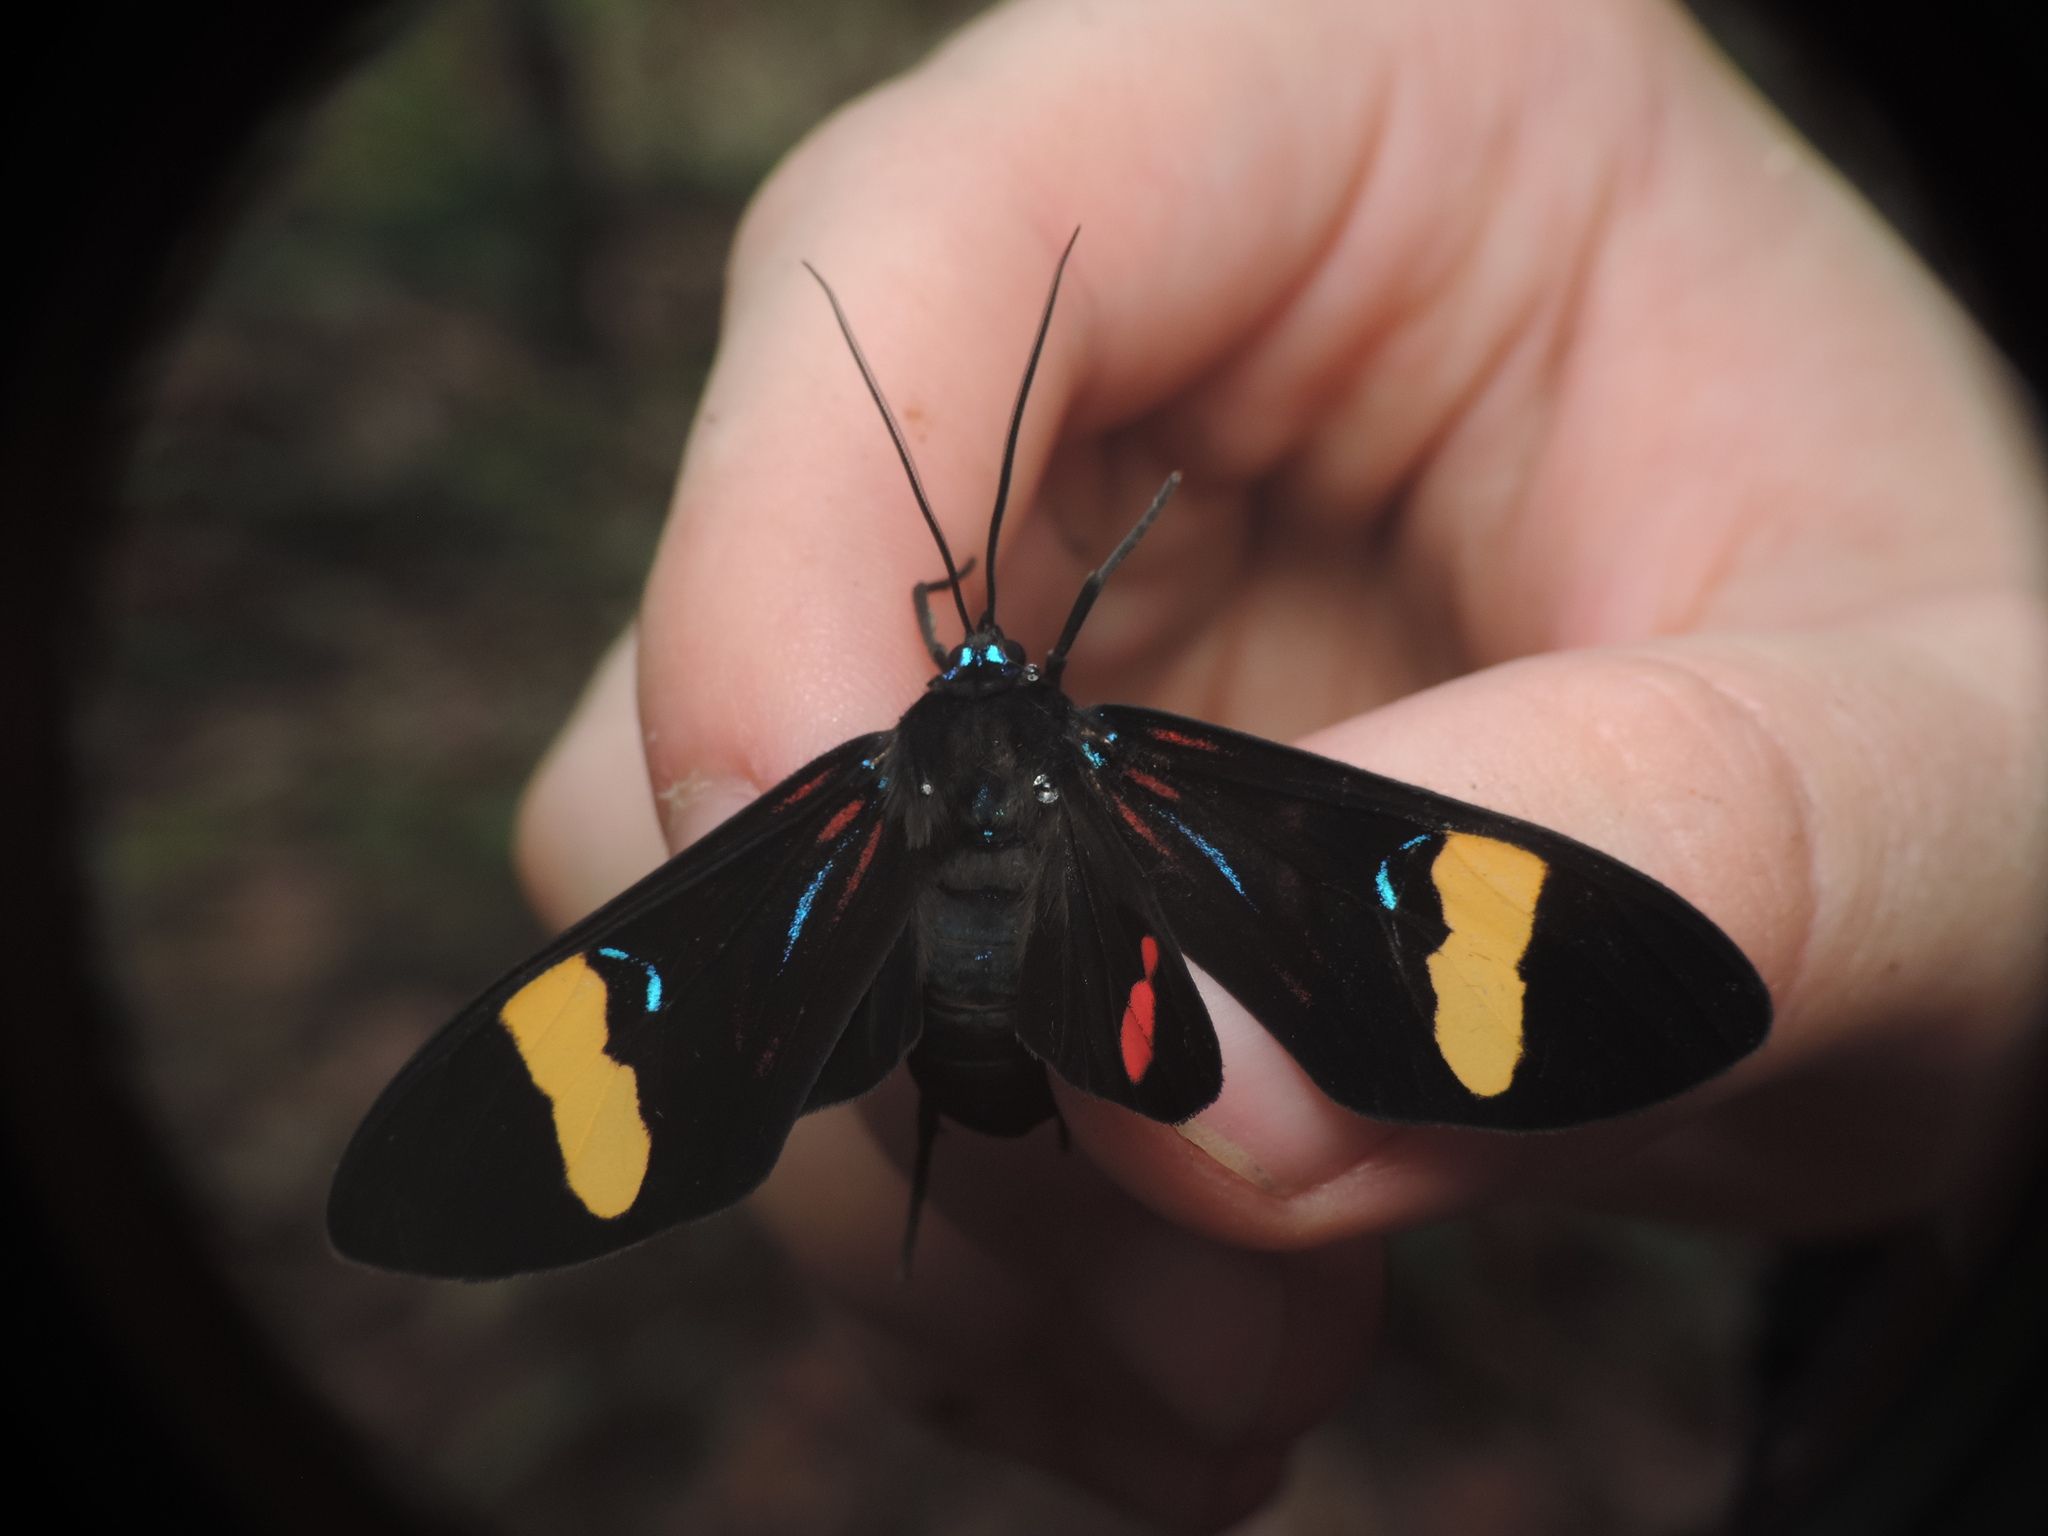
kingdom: Animalia
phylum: Arthropoda
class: Insecta
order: Lepidoptera
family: Erebidae
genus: Histioea
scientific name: Histioea amazonica
